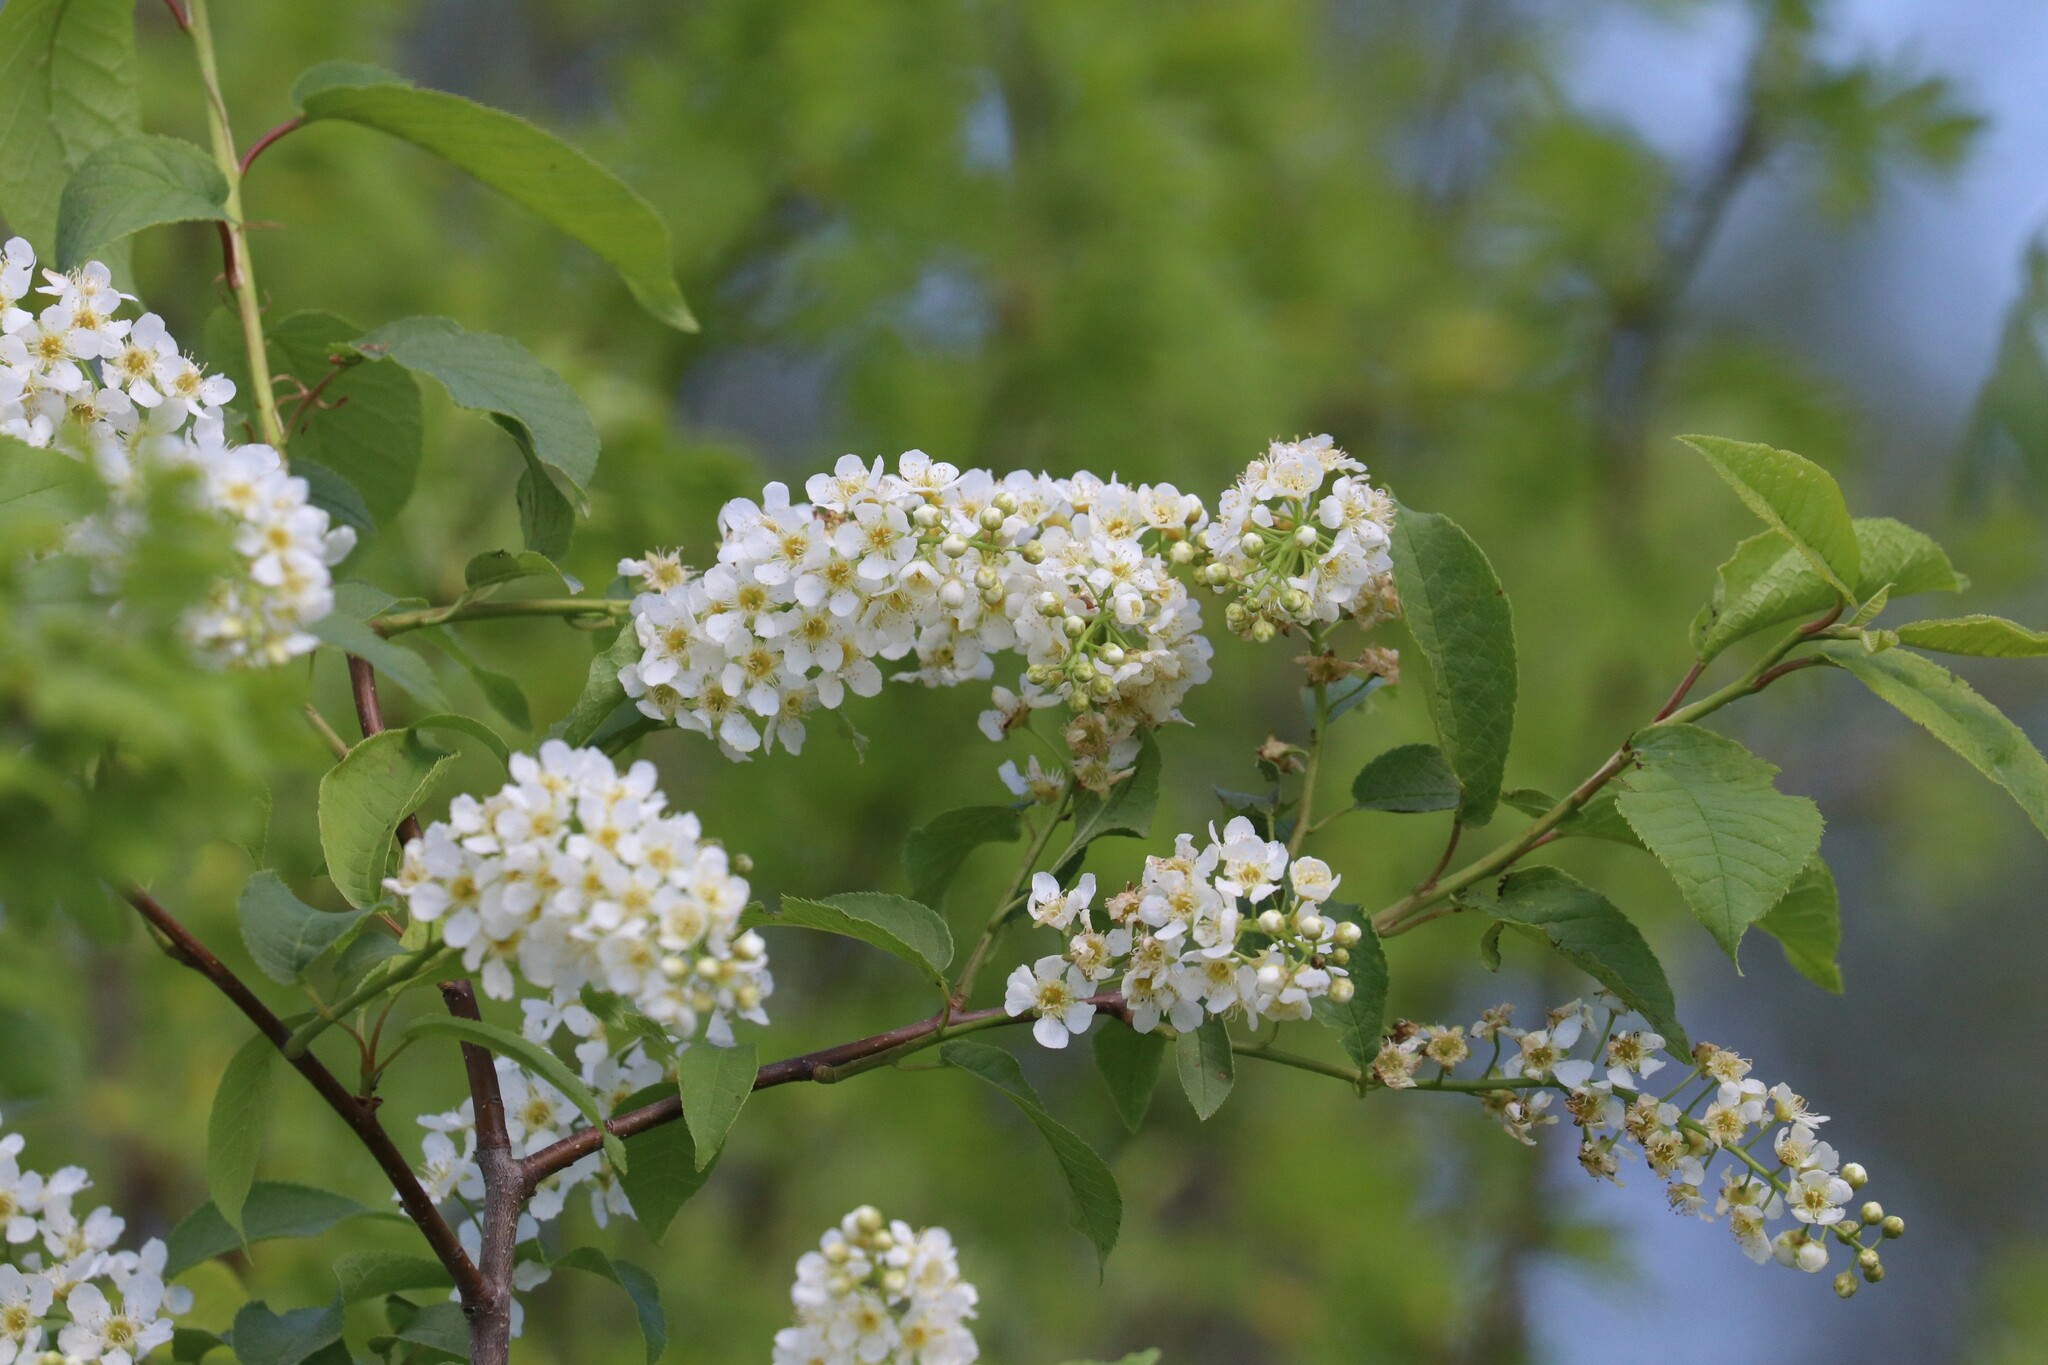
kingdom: Plantae
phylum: Tracheophyta
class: Magnoliopsida
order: Rosales
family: Rosaceae
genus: Prunus
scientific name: Prunus padus
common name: Bird cherry
